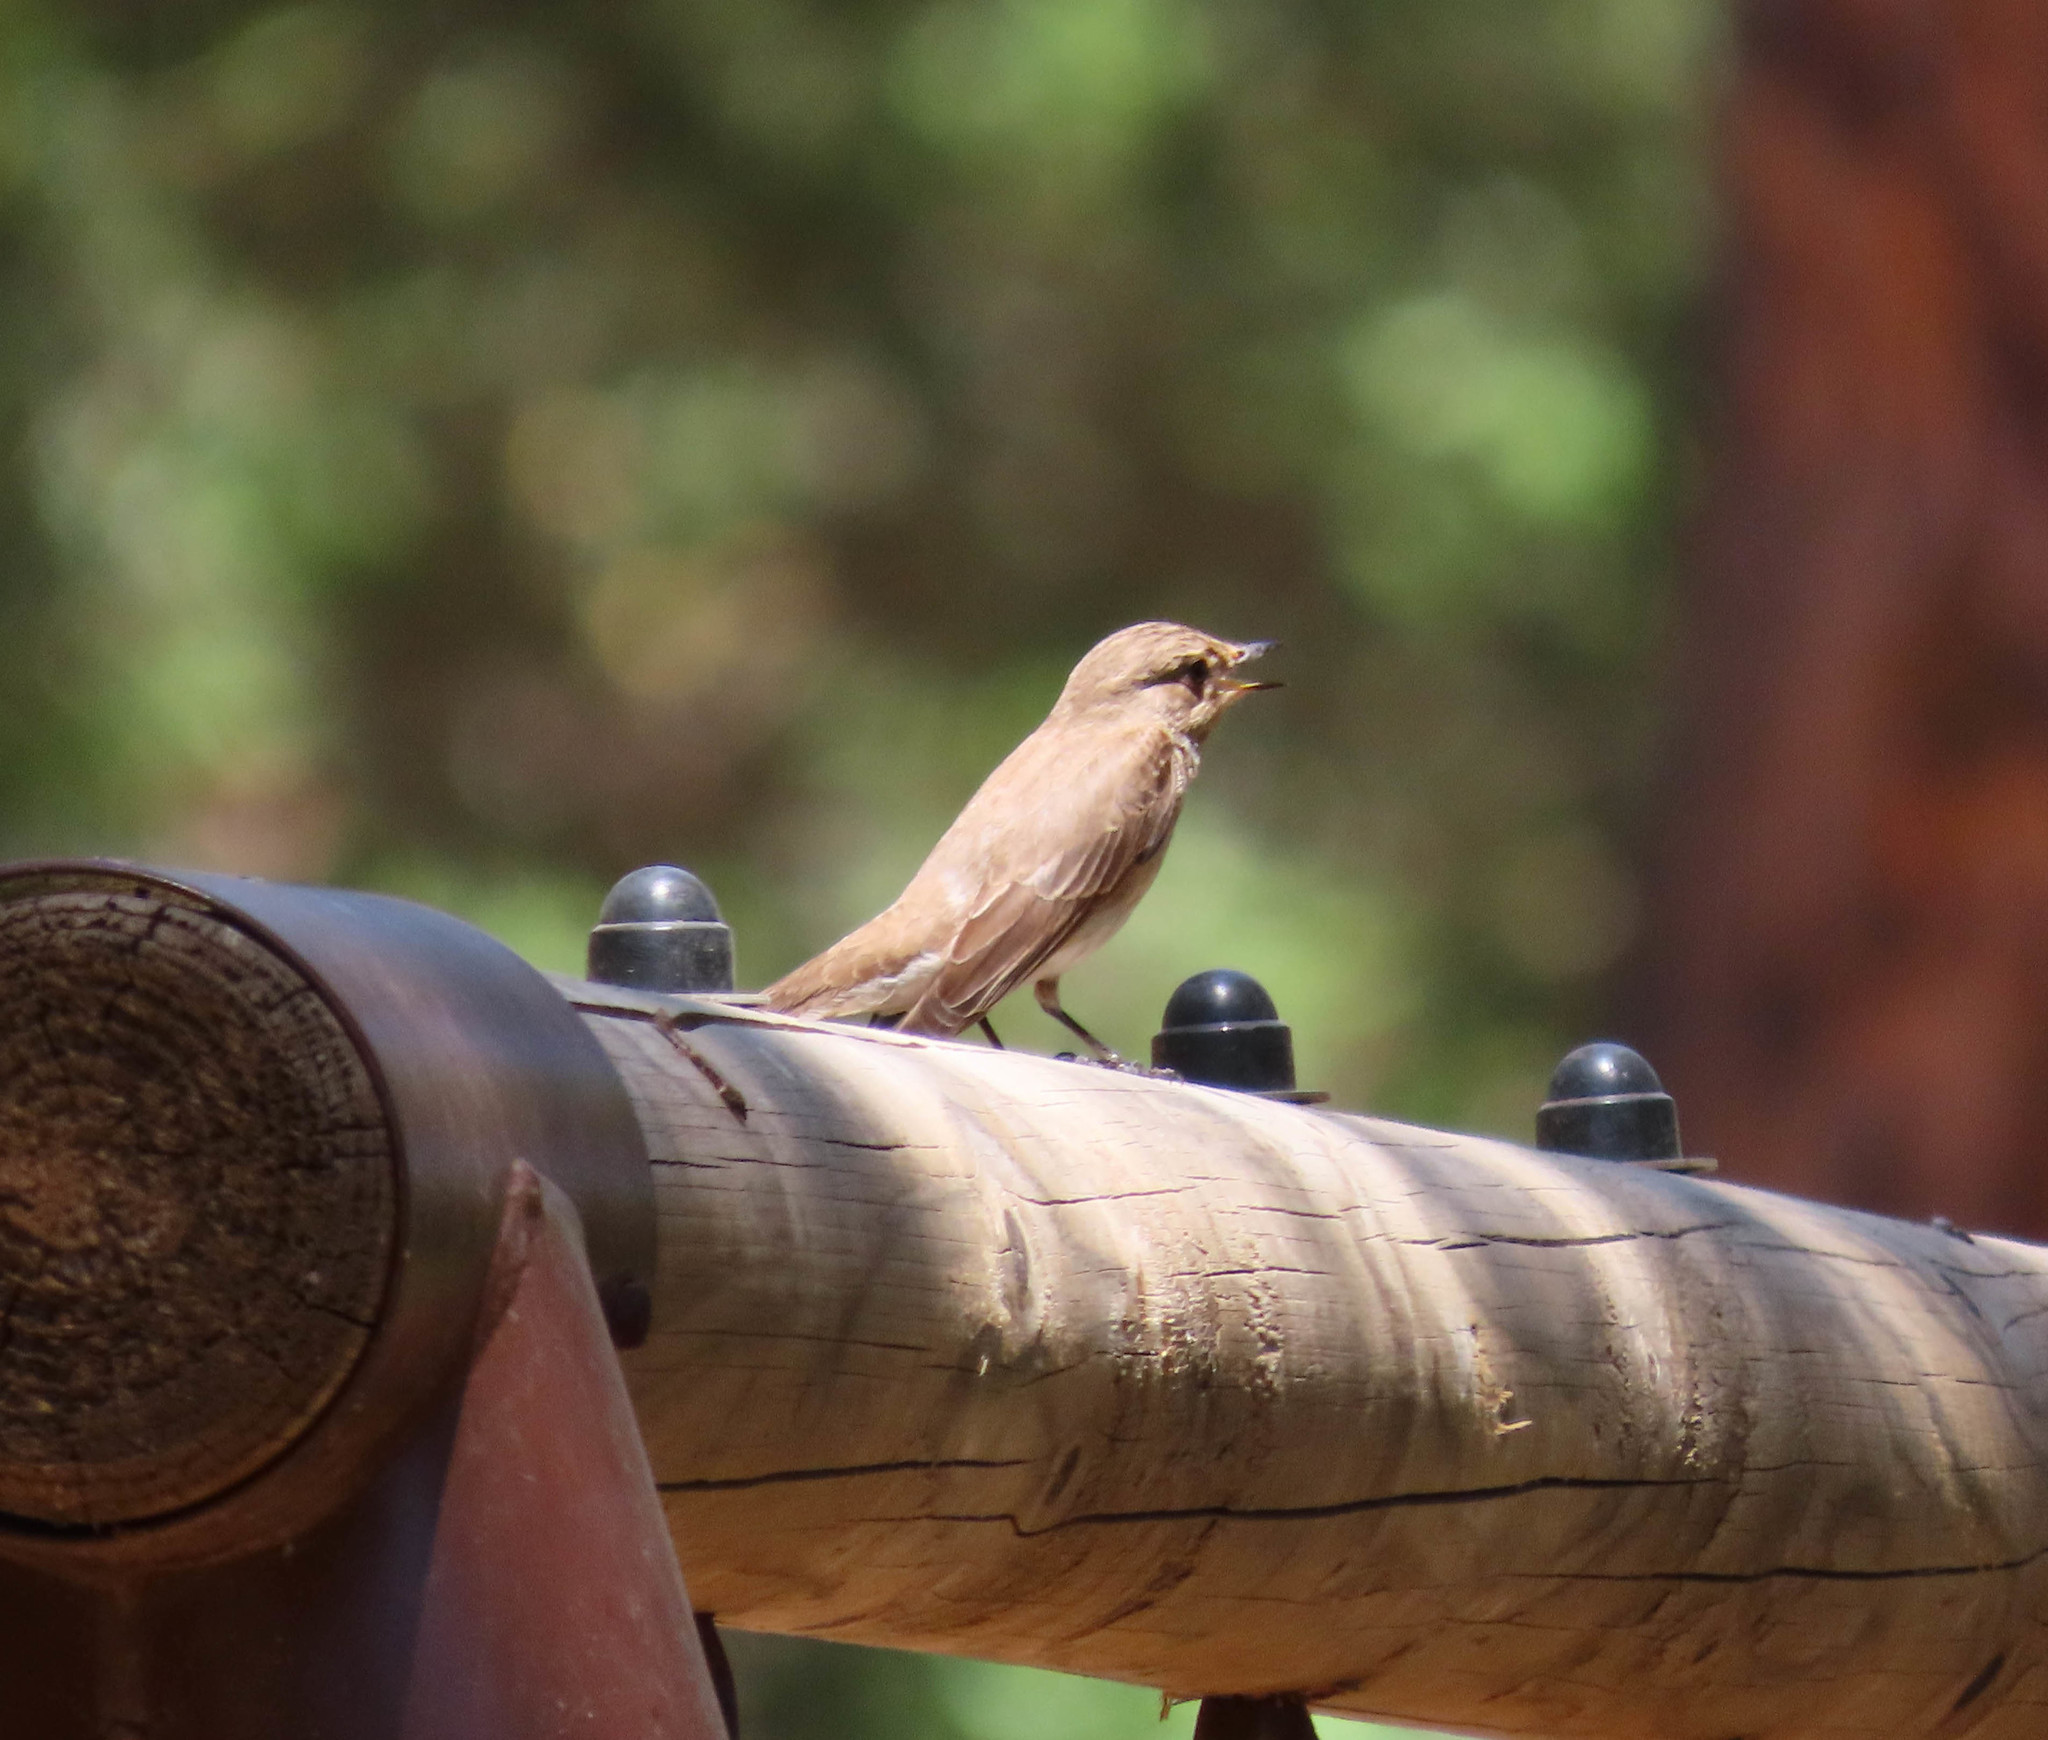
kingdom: Animalia
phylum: Chordata
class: Aves
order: Passeriformes
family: Muscicapidae
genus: Muscicapa
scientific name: Muscicapa striata
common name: Spotted flycatcher
